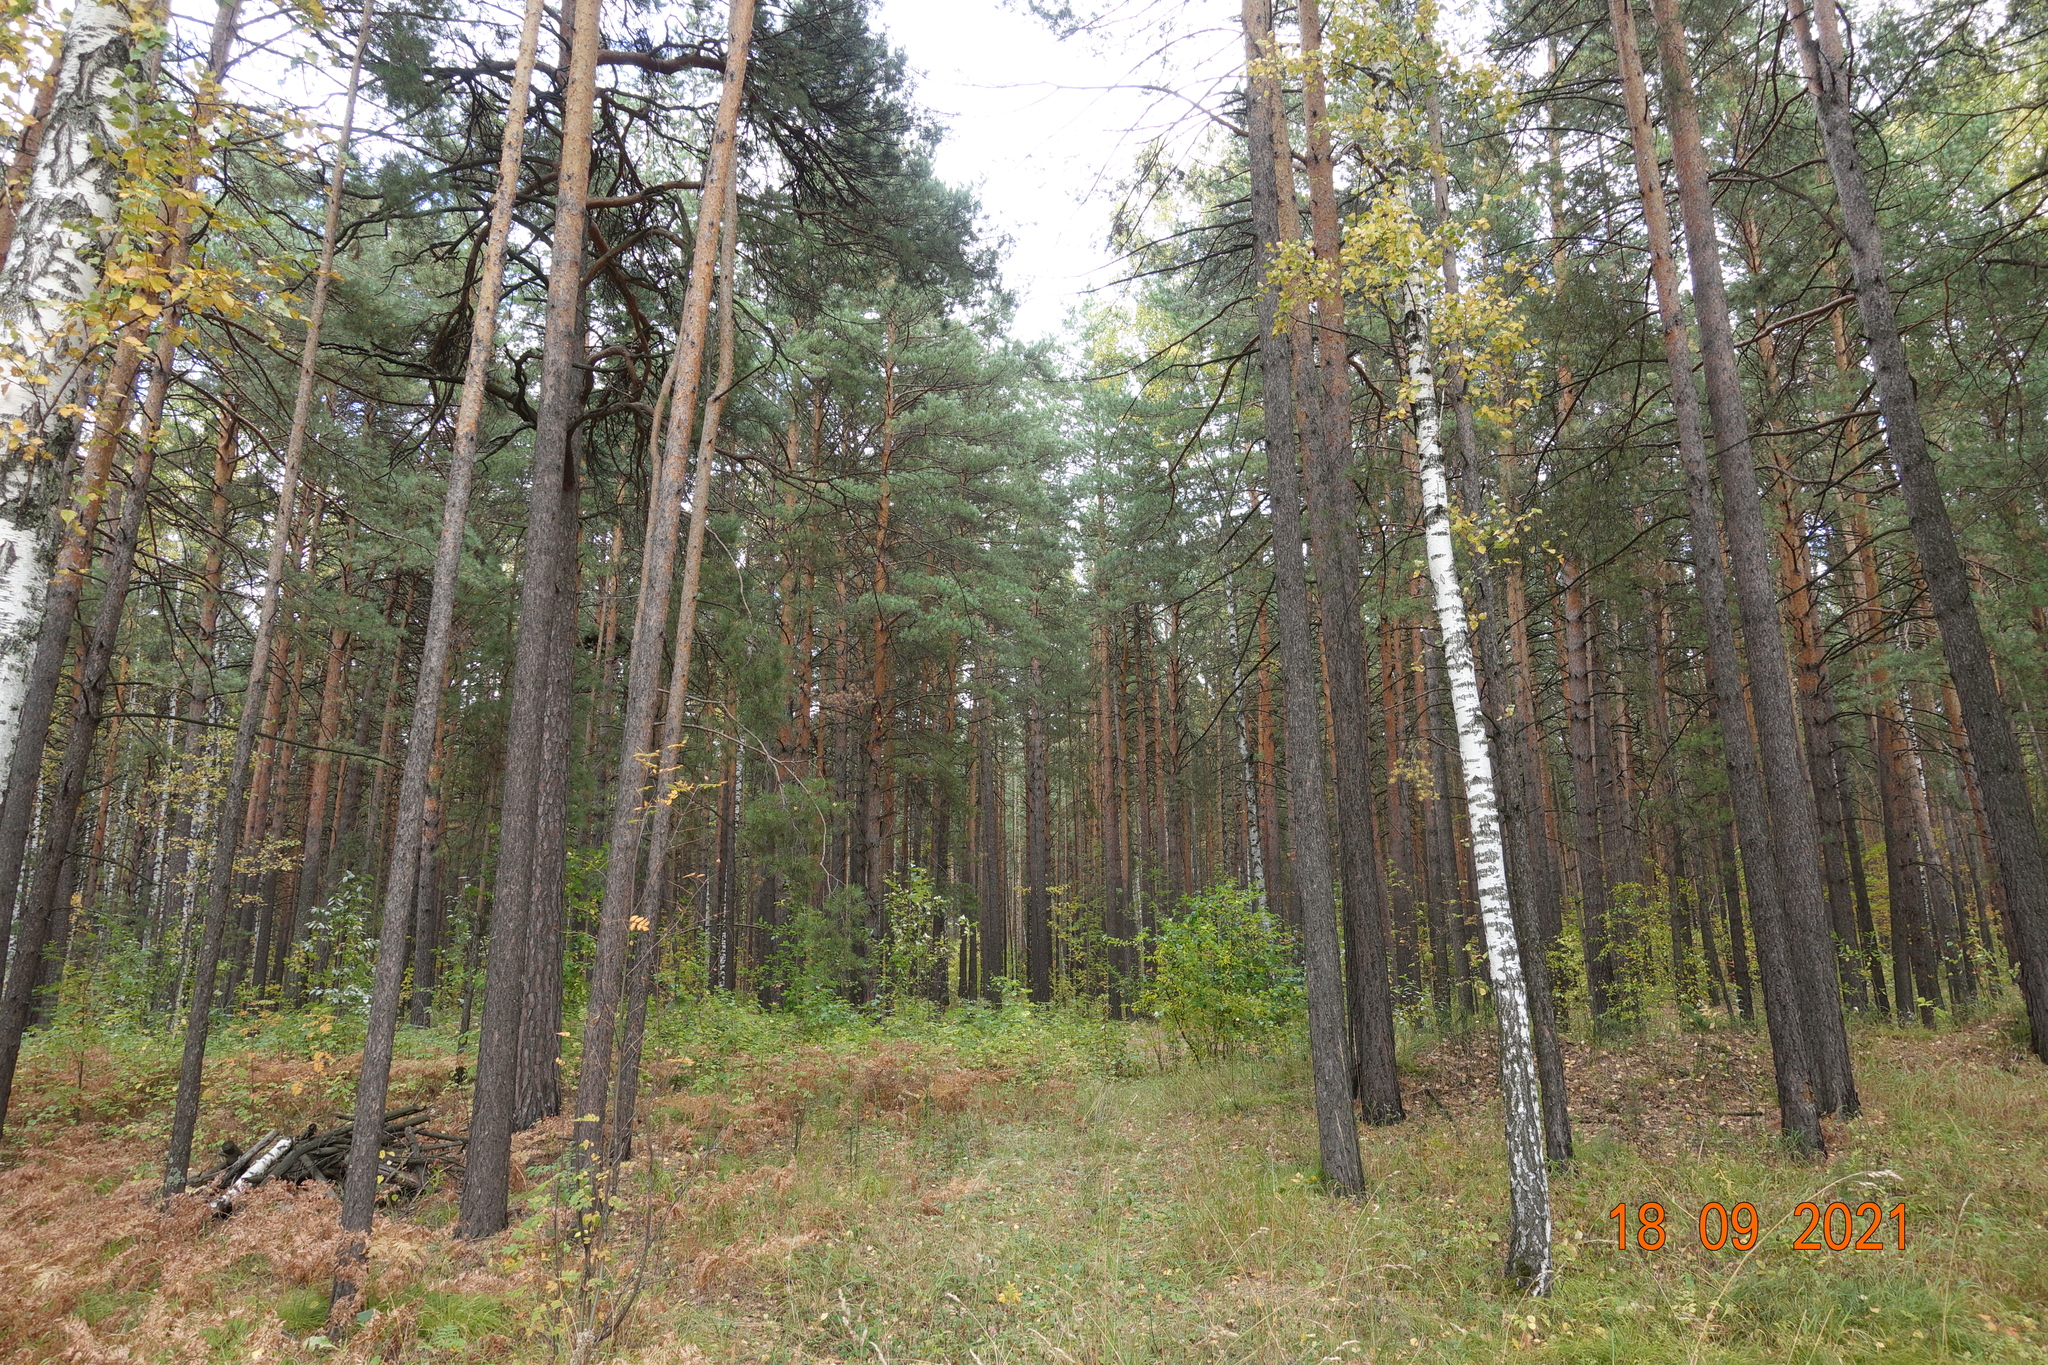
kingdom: Plantae
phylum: Tracheophyta
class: Pinopsida
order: Pinales
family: Pinaceae
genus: Pinus
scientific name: Pinus sylvestris
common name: Scots pine
